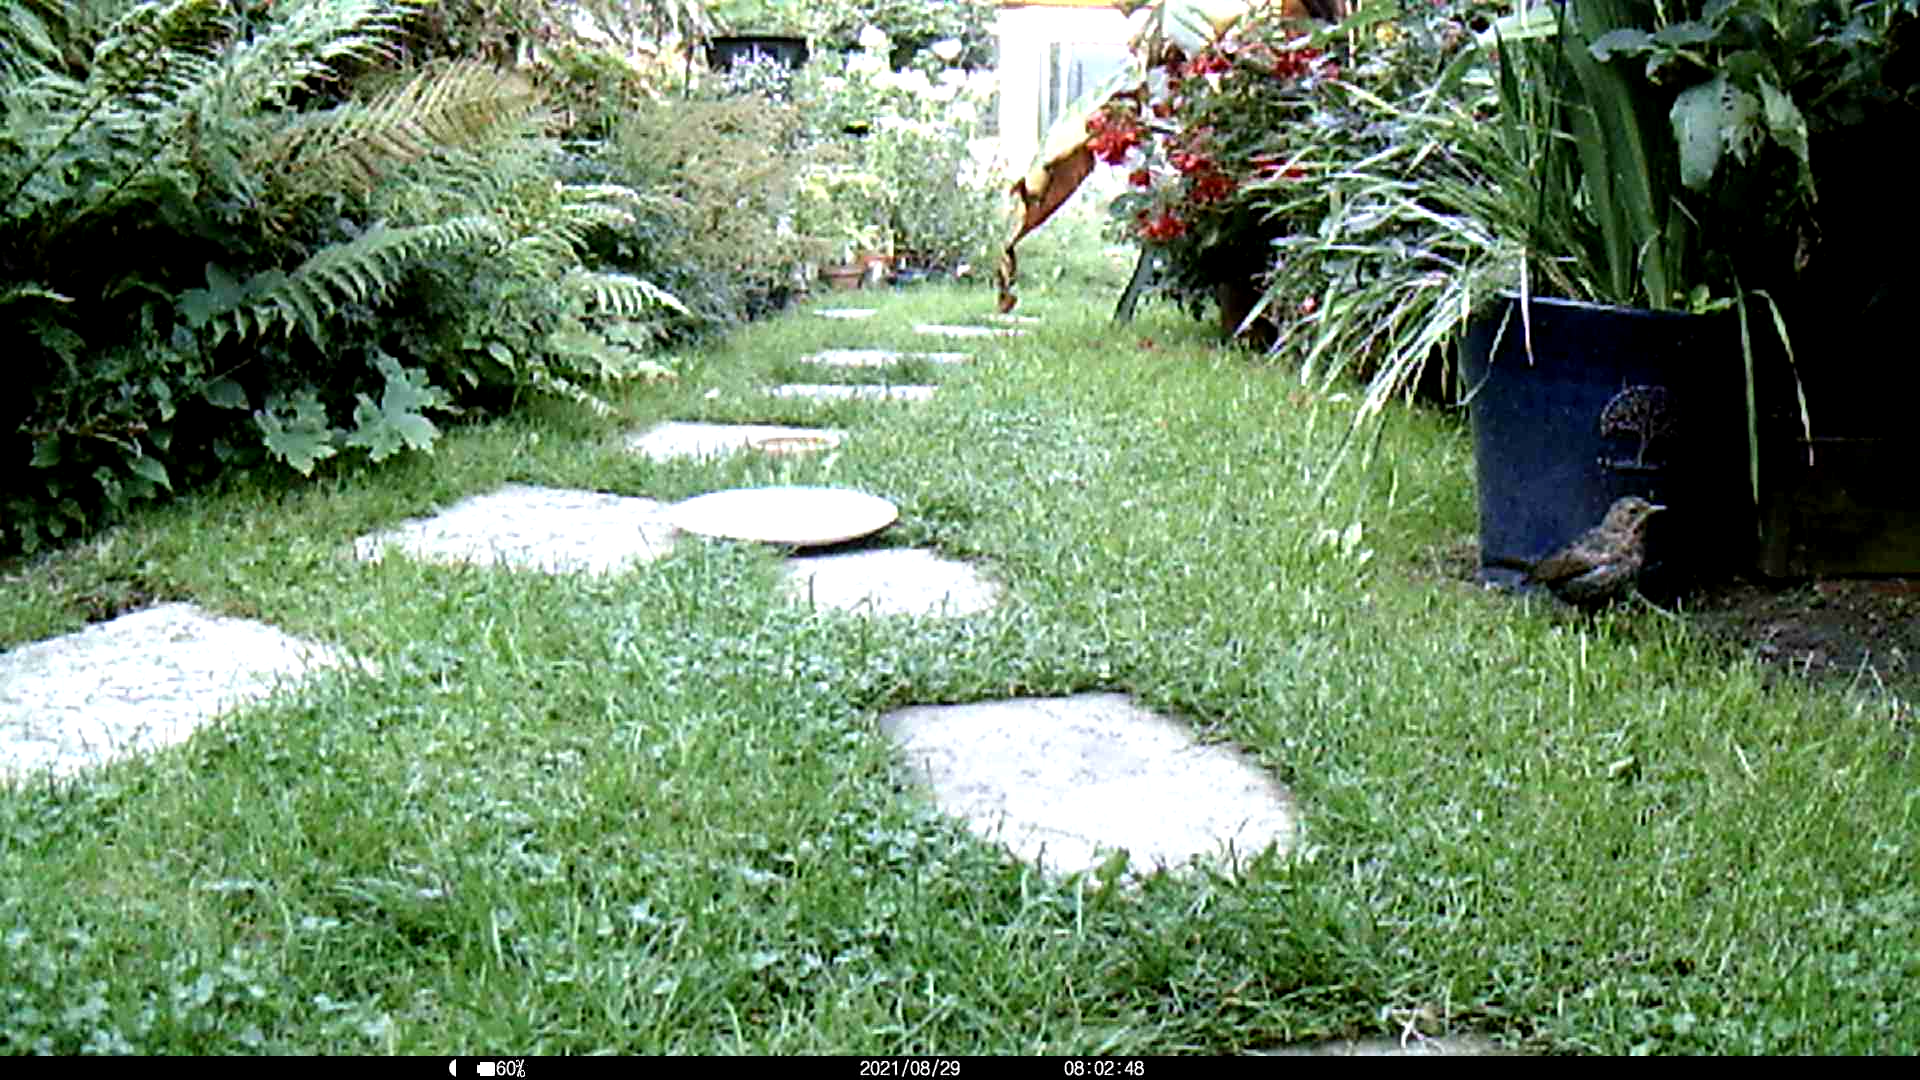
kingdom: Animalia
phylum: Chordata
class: Aves
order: Passeriformes
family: Turdidae
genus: Turdus
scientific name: Turdus merula
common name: Common blackbird
